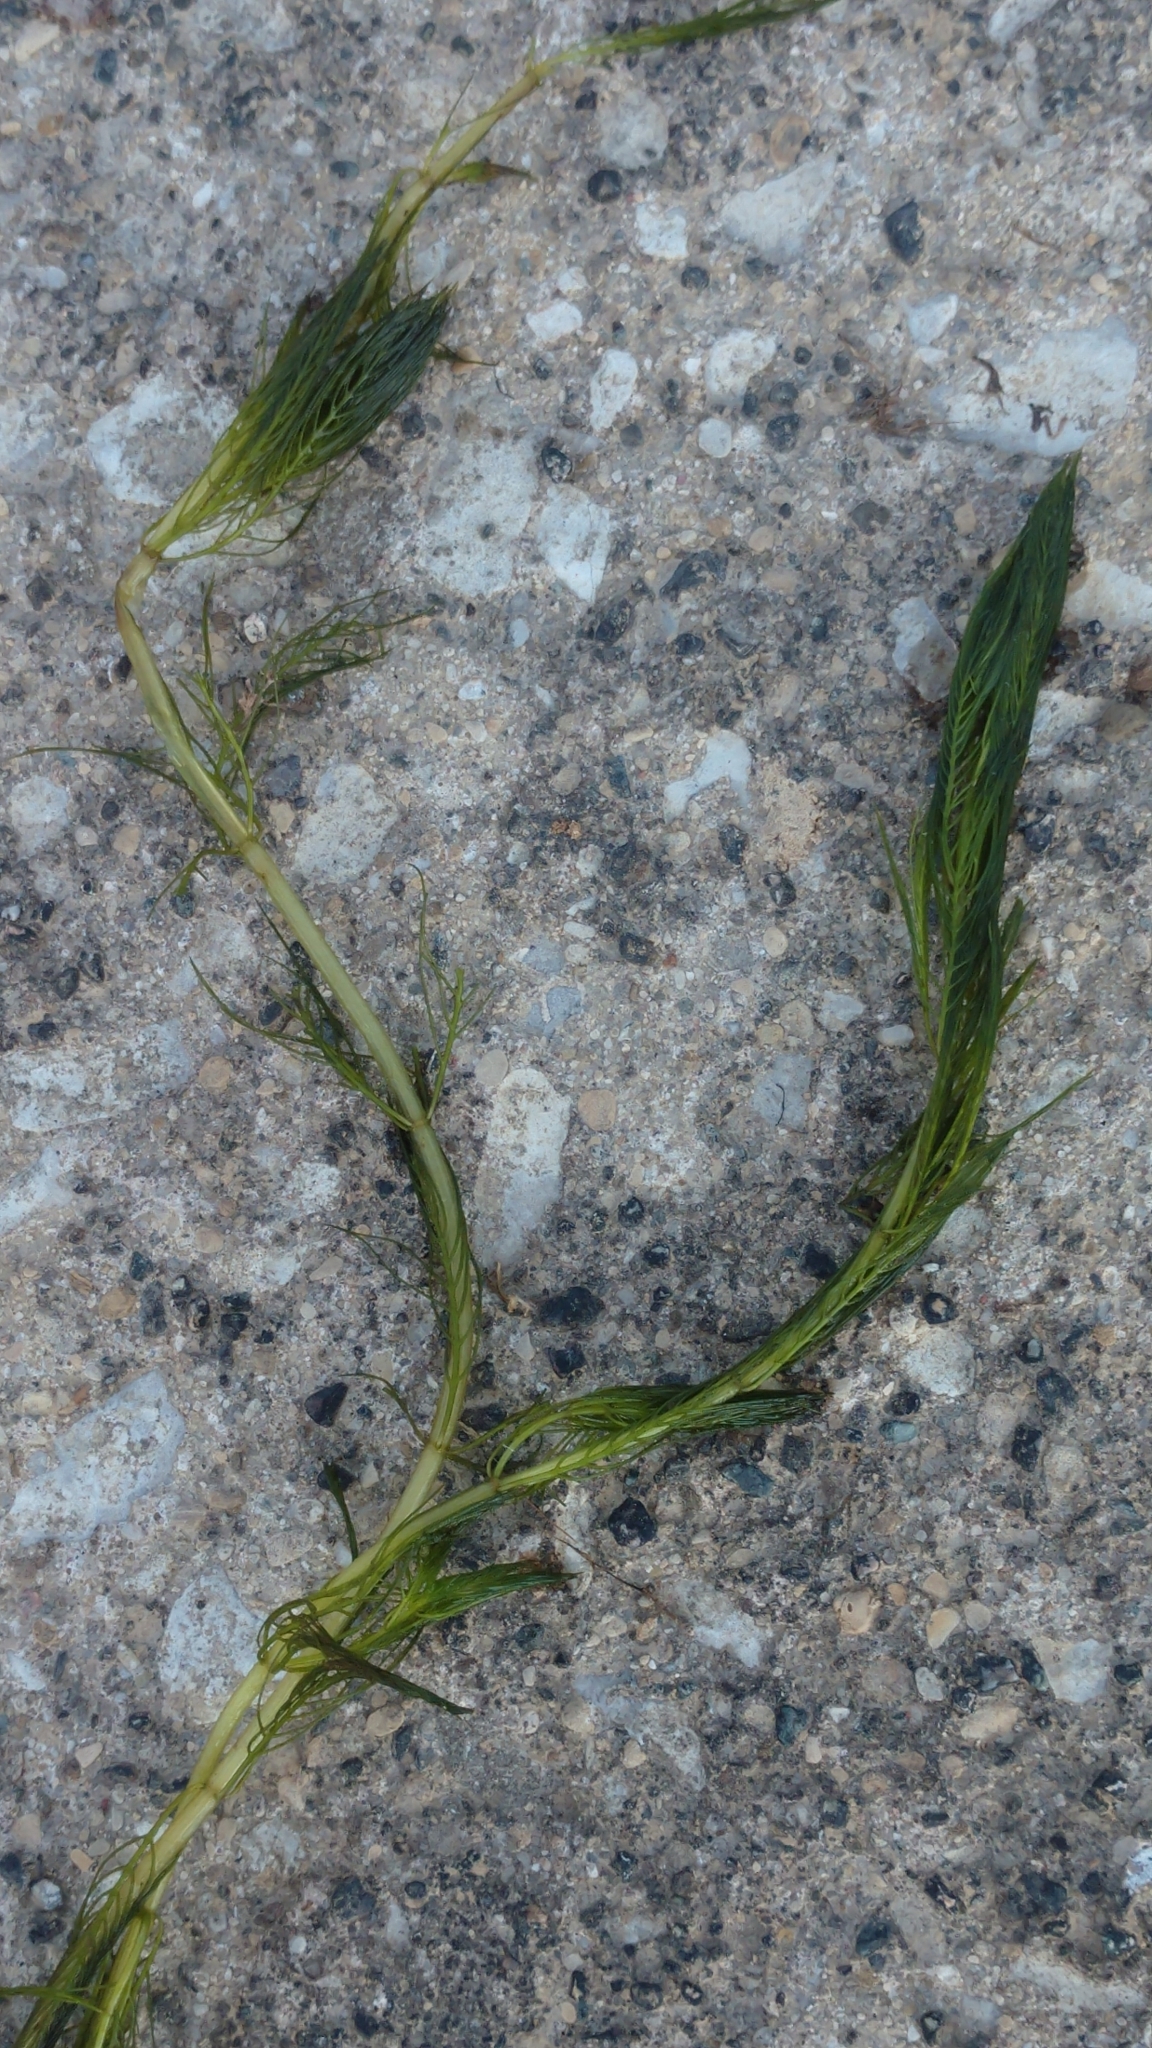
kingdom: Plantae
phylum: Tracheophyta
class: Magnoliopsida
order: Saxifragales
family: Haloragaceae
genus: Myriophyllum
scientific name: Myriophyllum spicatum
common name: Spiked water-milfoil
